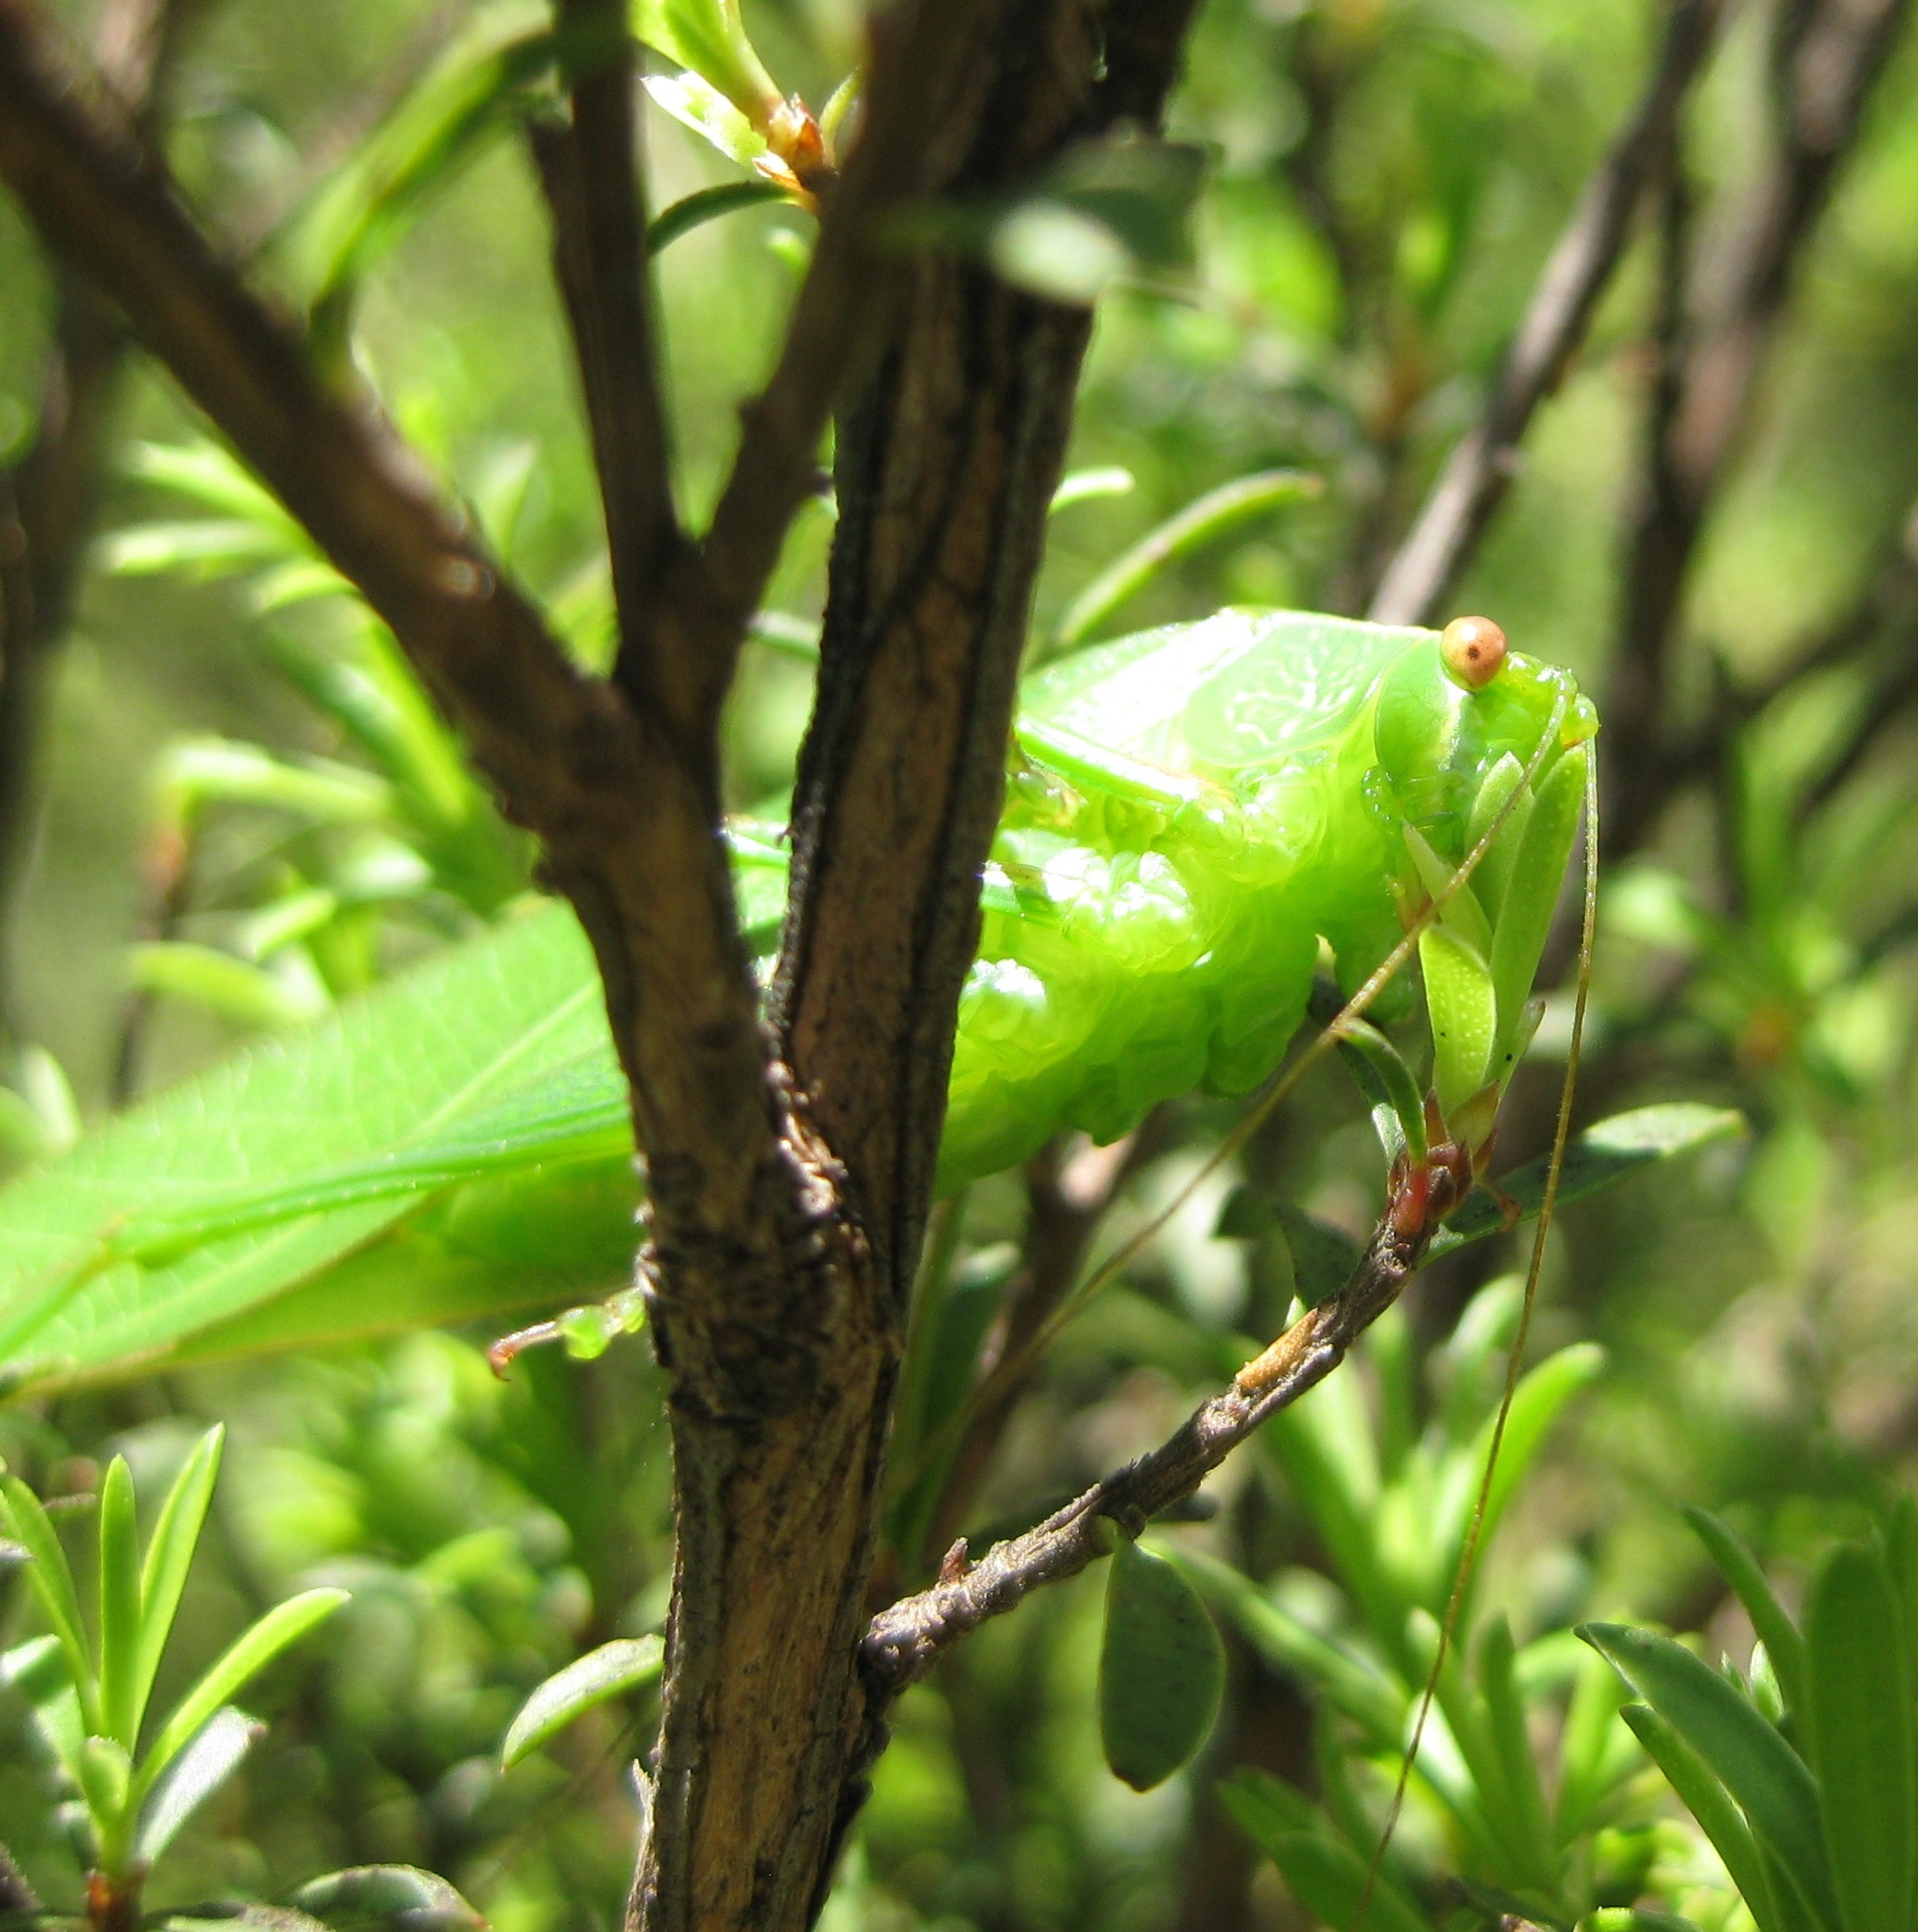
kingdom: Animalia
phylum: Arthropoda
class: Insecta
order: Orthoptera
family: Tettigoniidae
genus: Caedicia
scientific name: Caedicia simplex
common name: Common garden katydid
